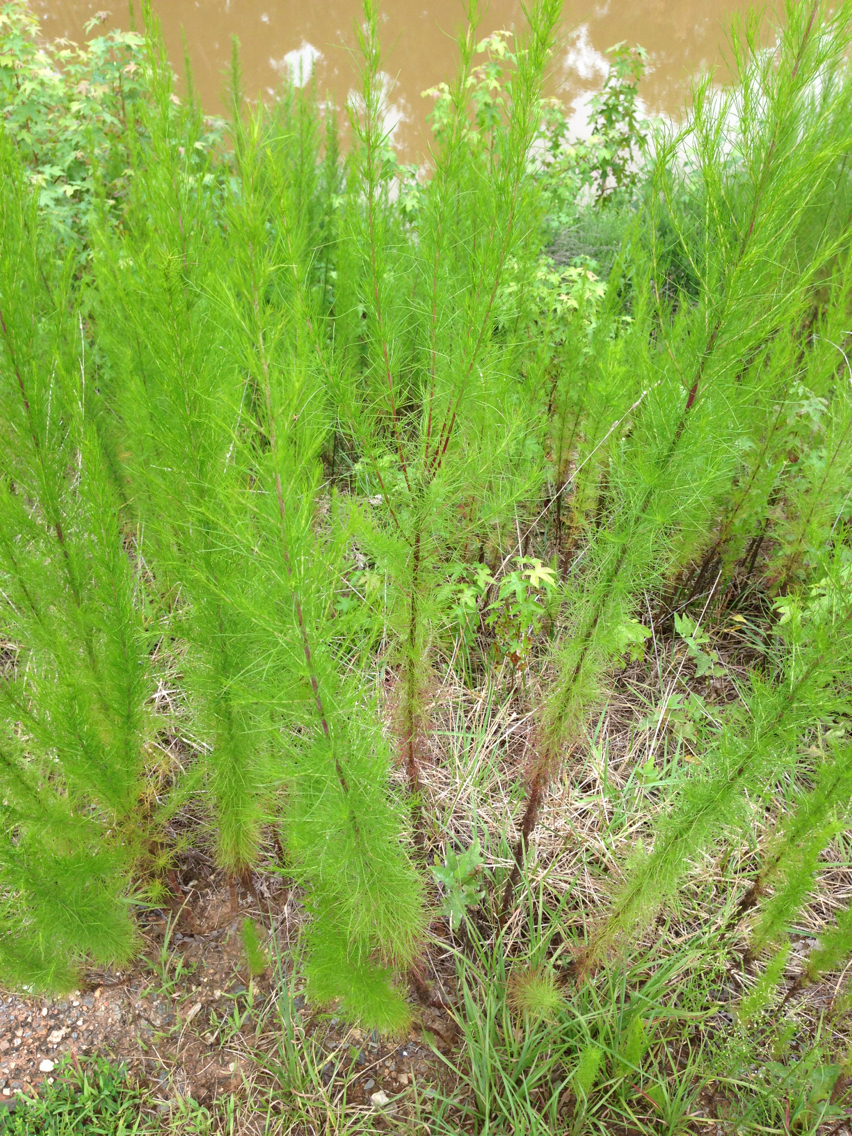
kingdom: Plantae
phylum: Tracheophyta
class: Magnoliopsida
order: Asterales
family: Asteraceae
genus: Eupatorium
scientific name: Eupatorium capillifolium
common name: Dog-fennel
